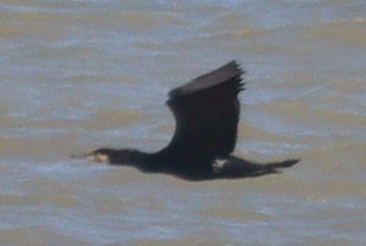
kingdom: Animalia
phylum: Chordata
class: Aves
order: Suliformes
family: Phalacrocoracidae
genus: Phalacrocorax
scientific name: Phalacrocorax carbo
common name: Great cormorant
